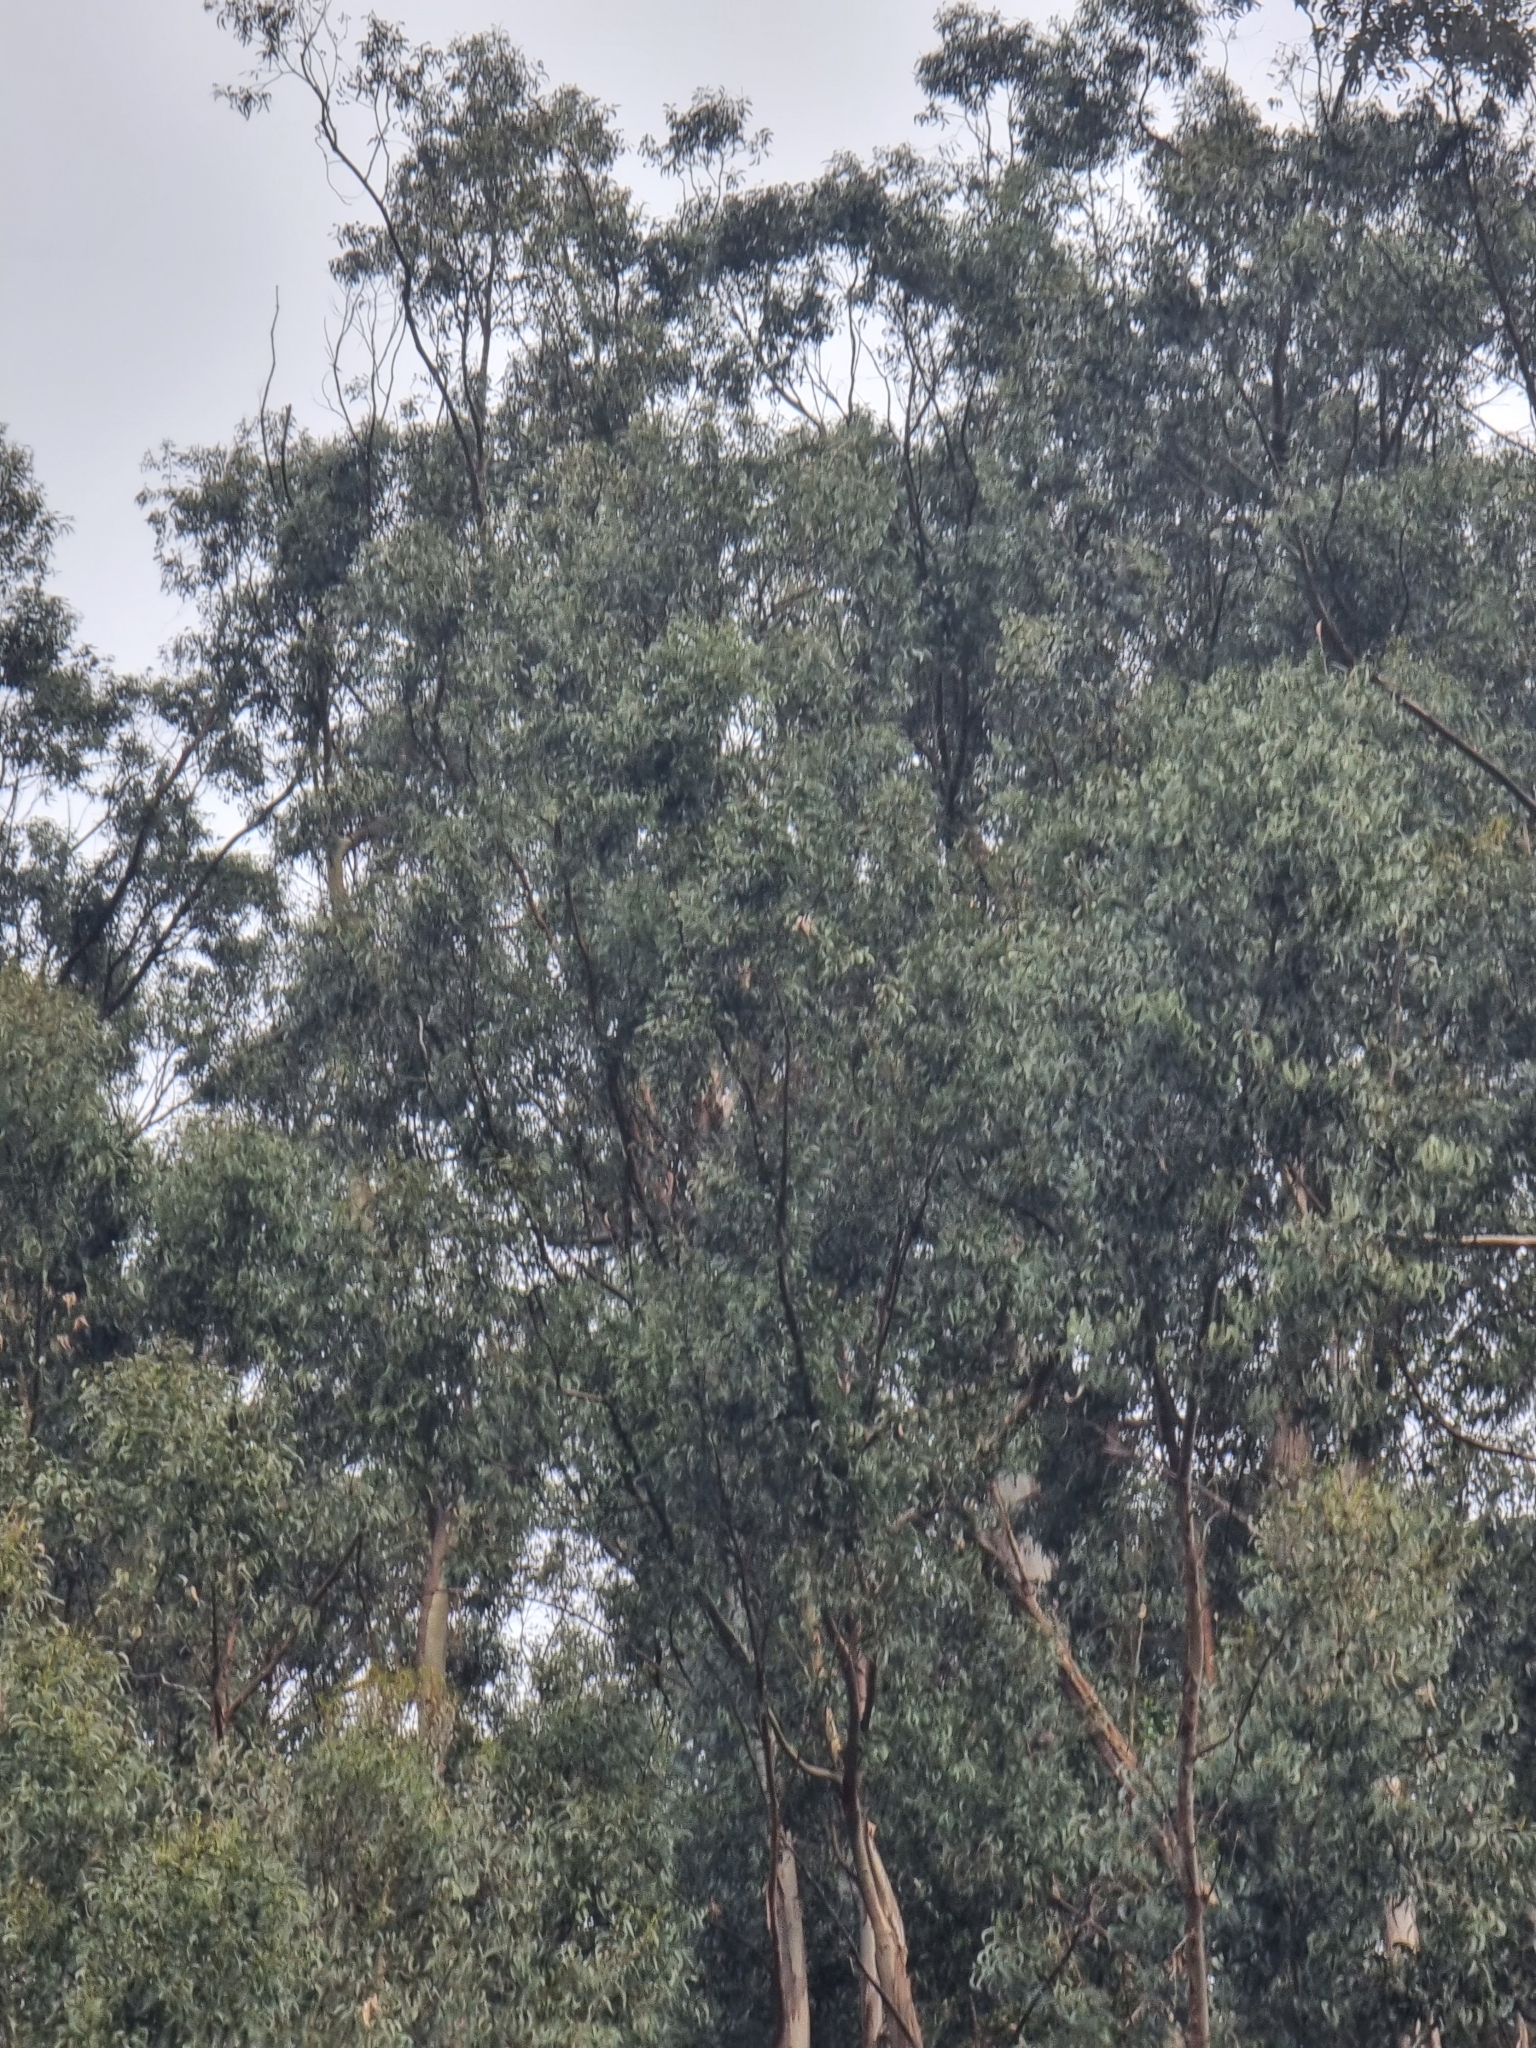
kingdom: Plantae
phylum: Tracheophyta
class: Magnoliopsida
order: Myrtales
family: Myrtaceae
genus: Eucalyptus
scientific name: Eucalyptus globulus
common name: Southern blue-gum
